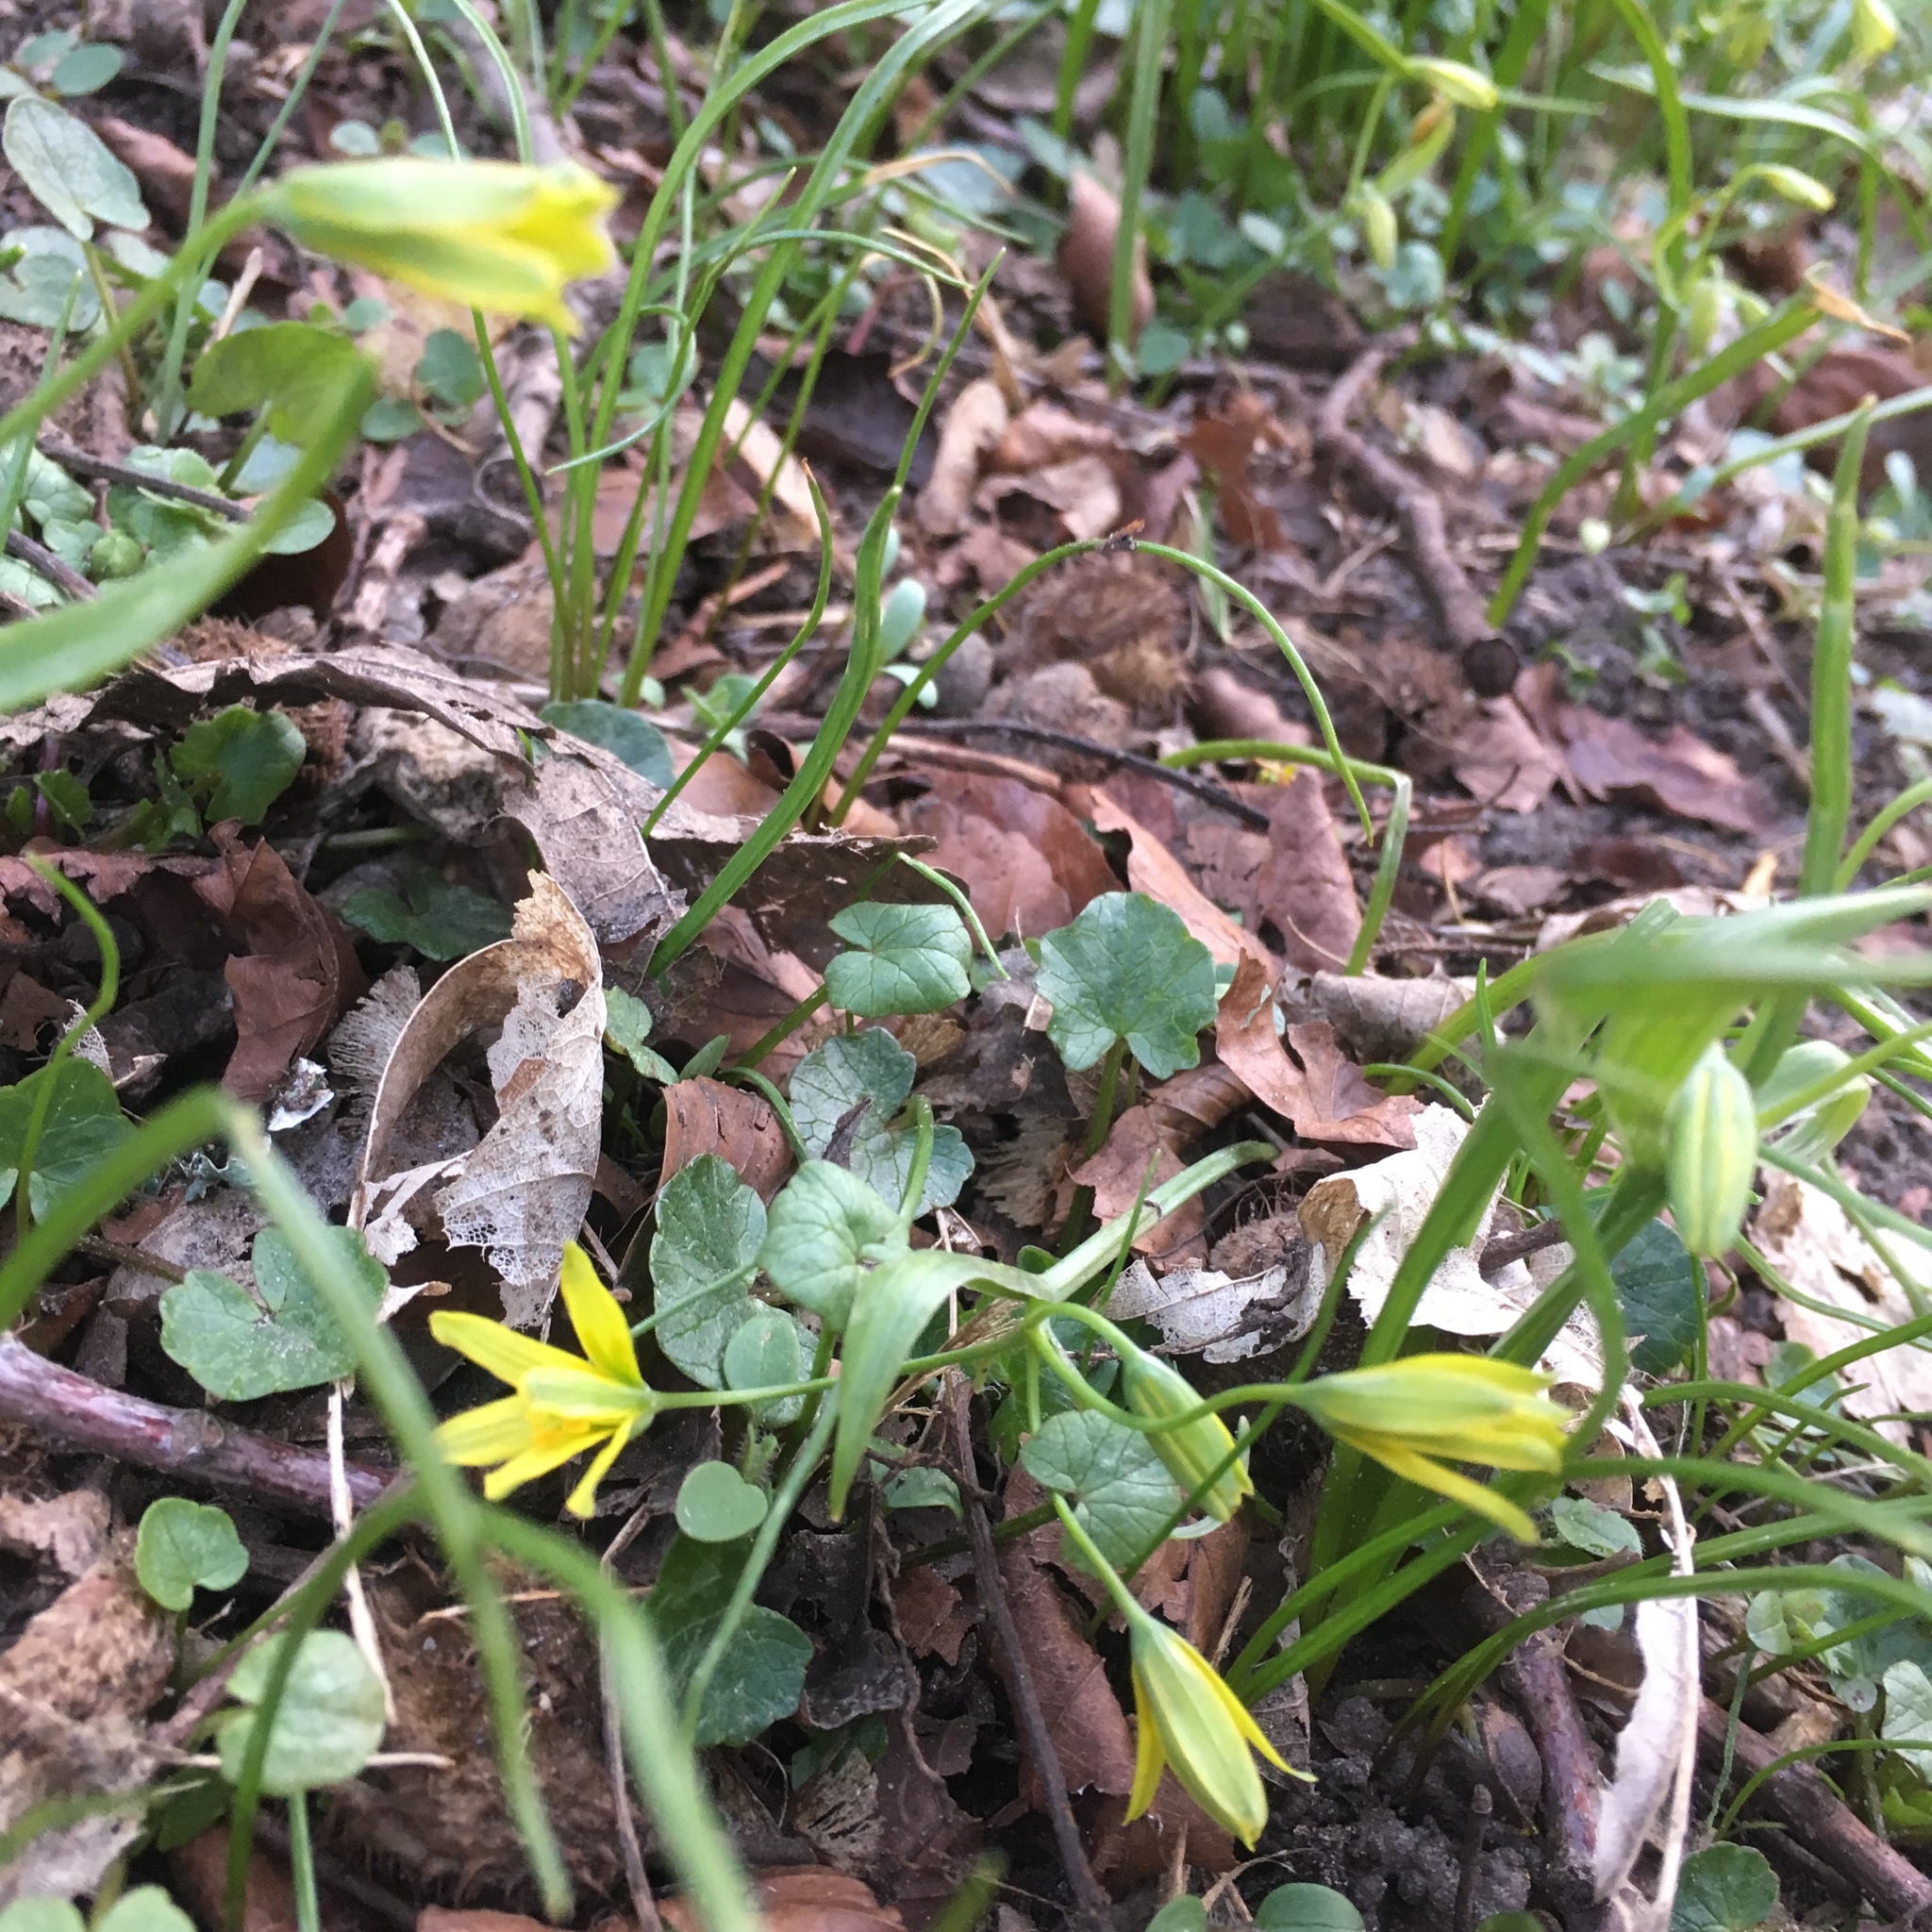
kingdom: Plantae
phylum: Tracheophyta
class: Liliopsida
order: Liliales
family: Liliaceae
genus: Gagea
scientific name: Gagea lutea
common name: Yellow star-of-bethlehem
